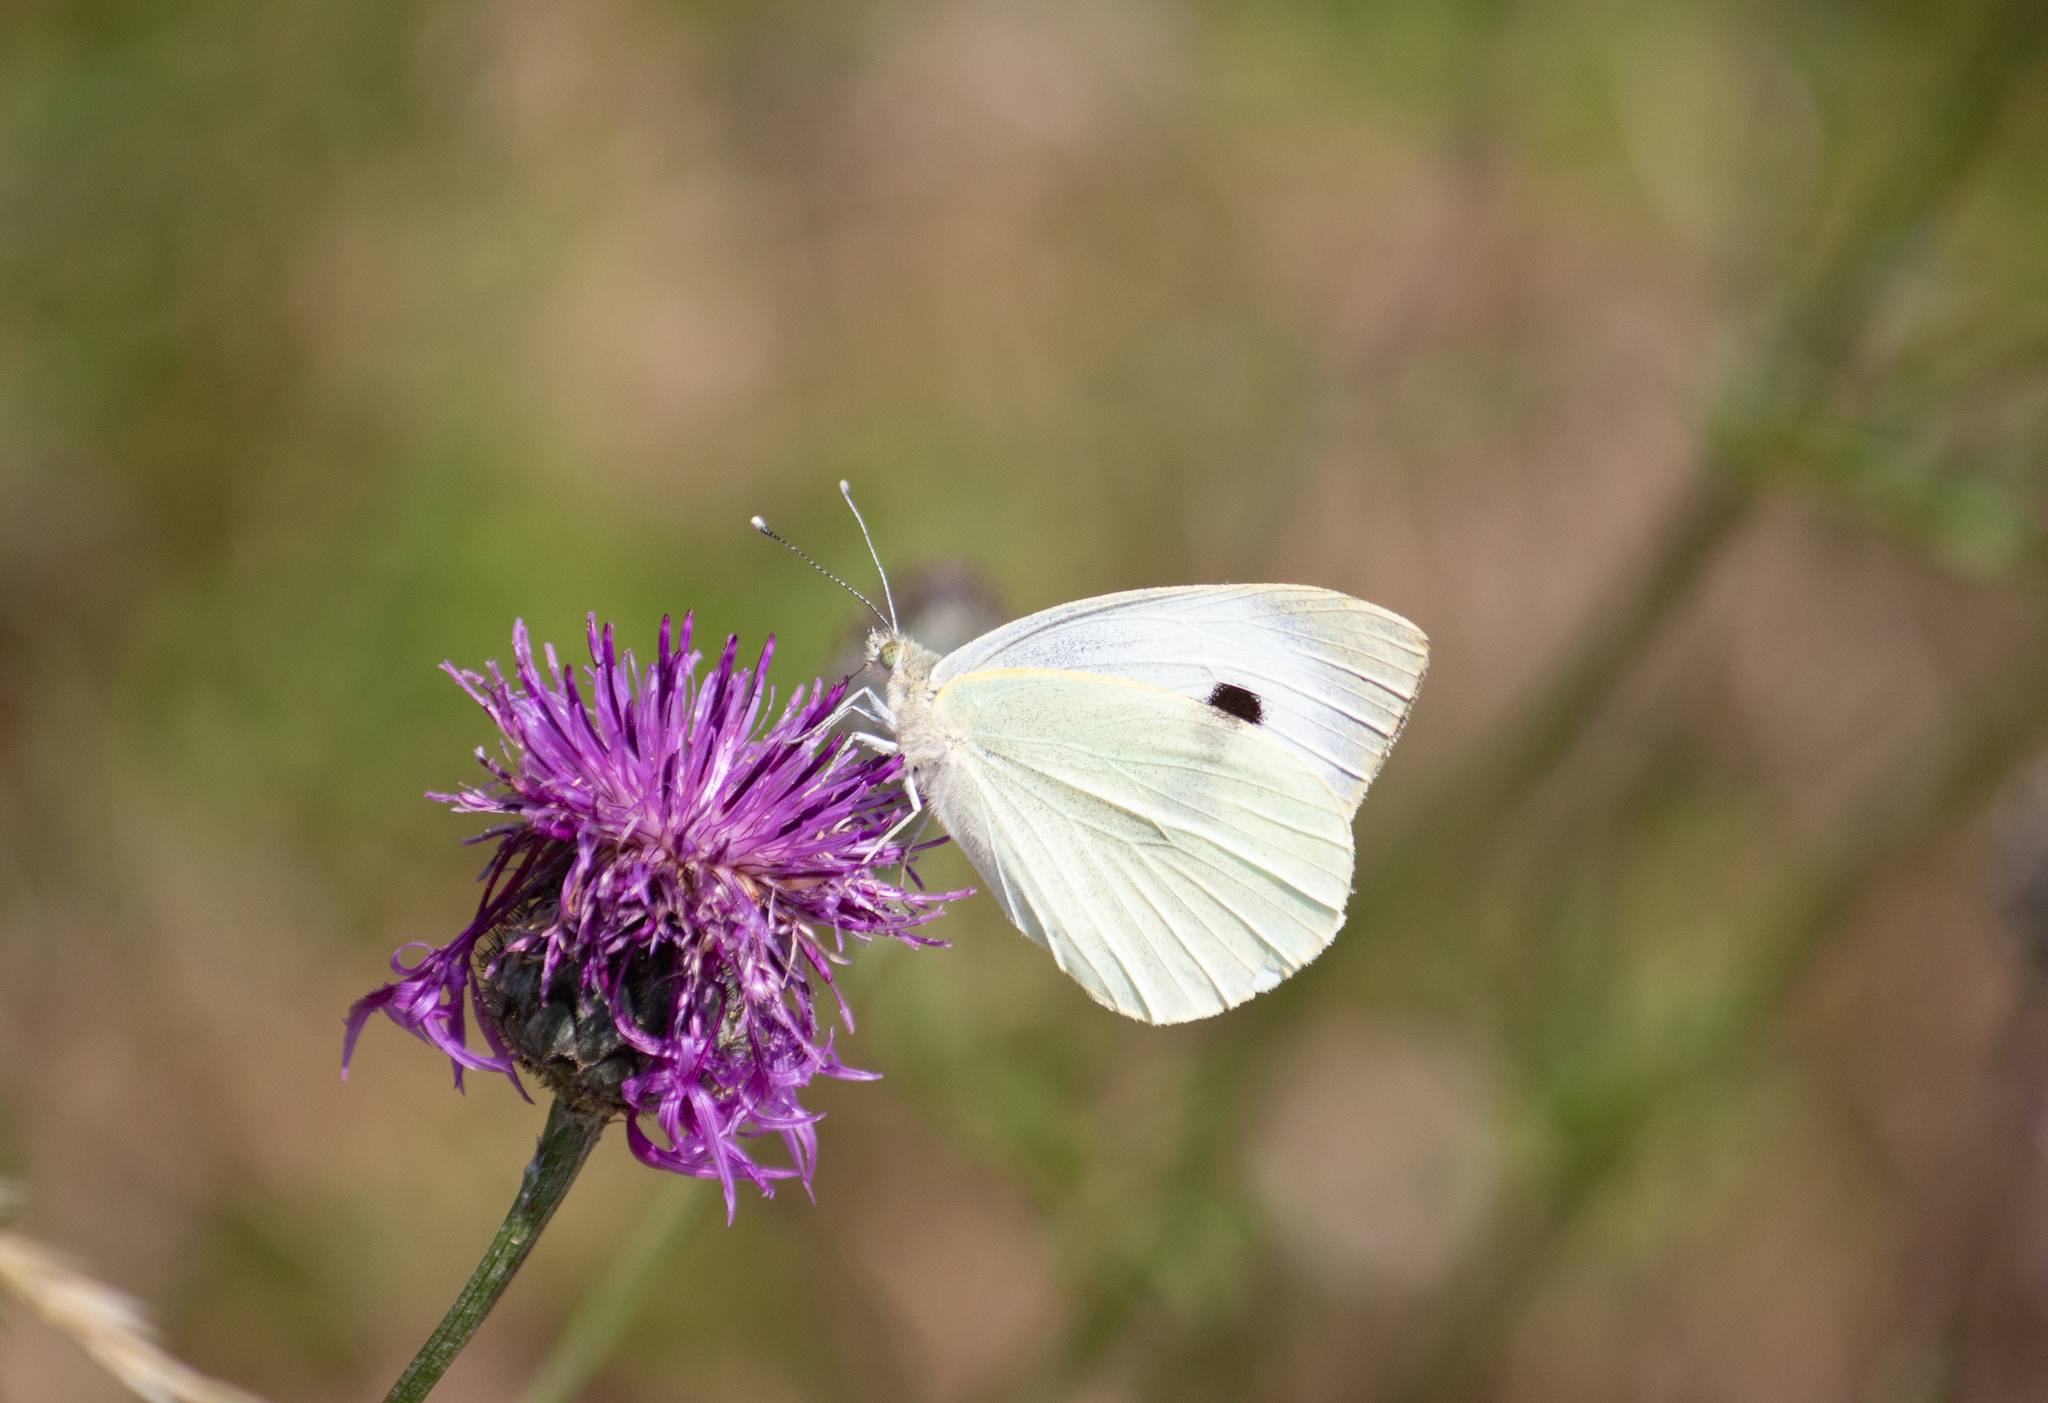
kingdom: Animalia
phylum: Arthropoda
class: Insecta
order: Lepidoptera
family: Pieridae
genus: Pieris
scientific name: Pieris brassicae
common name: Large white
